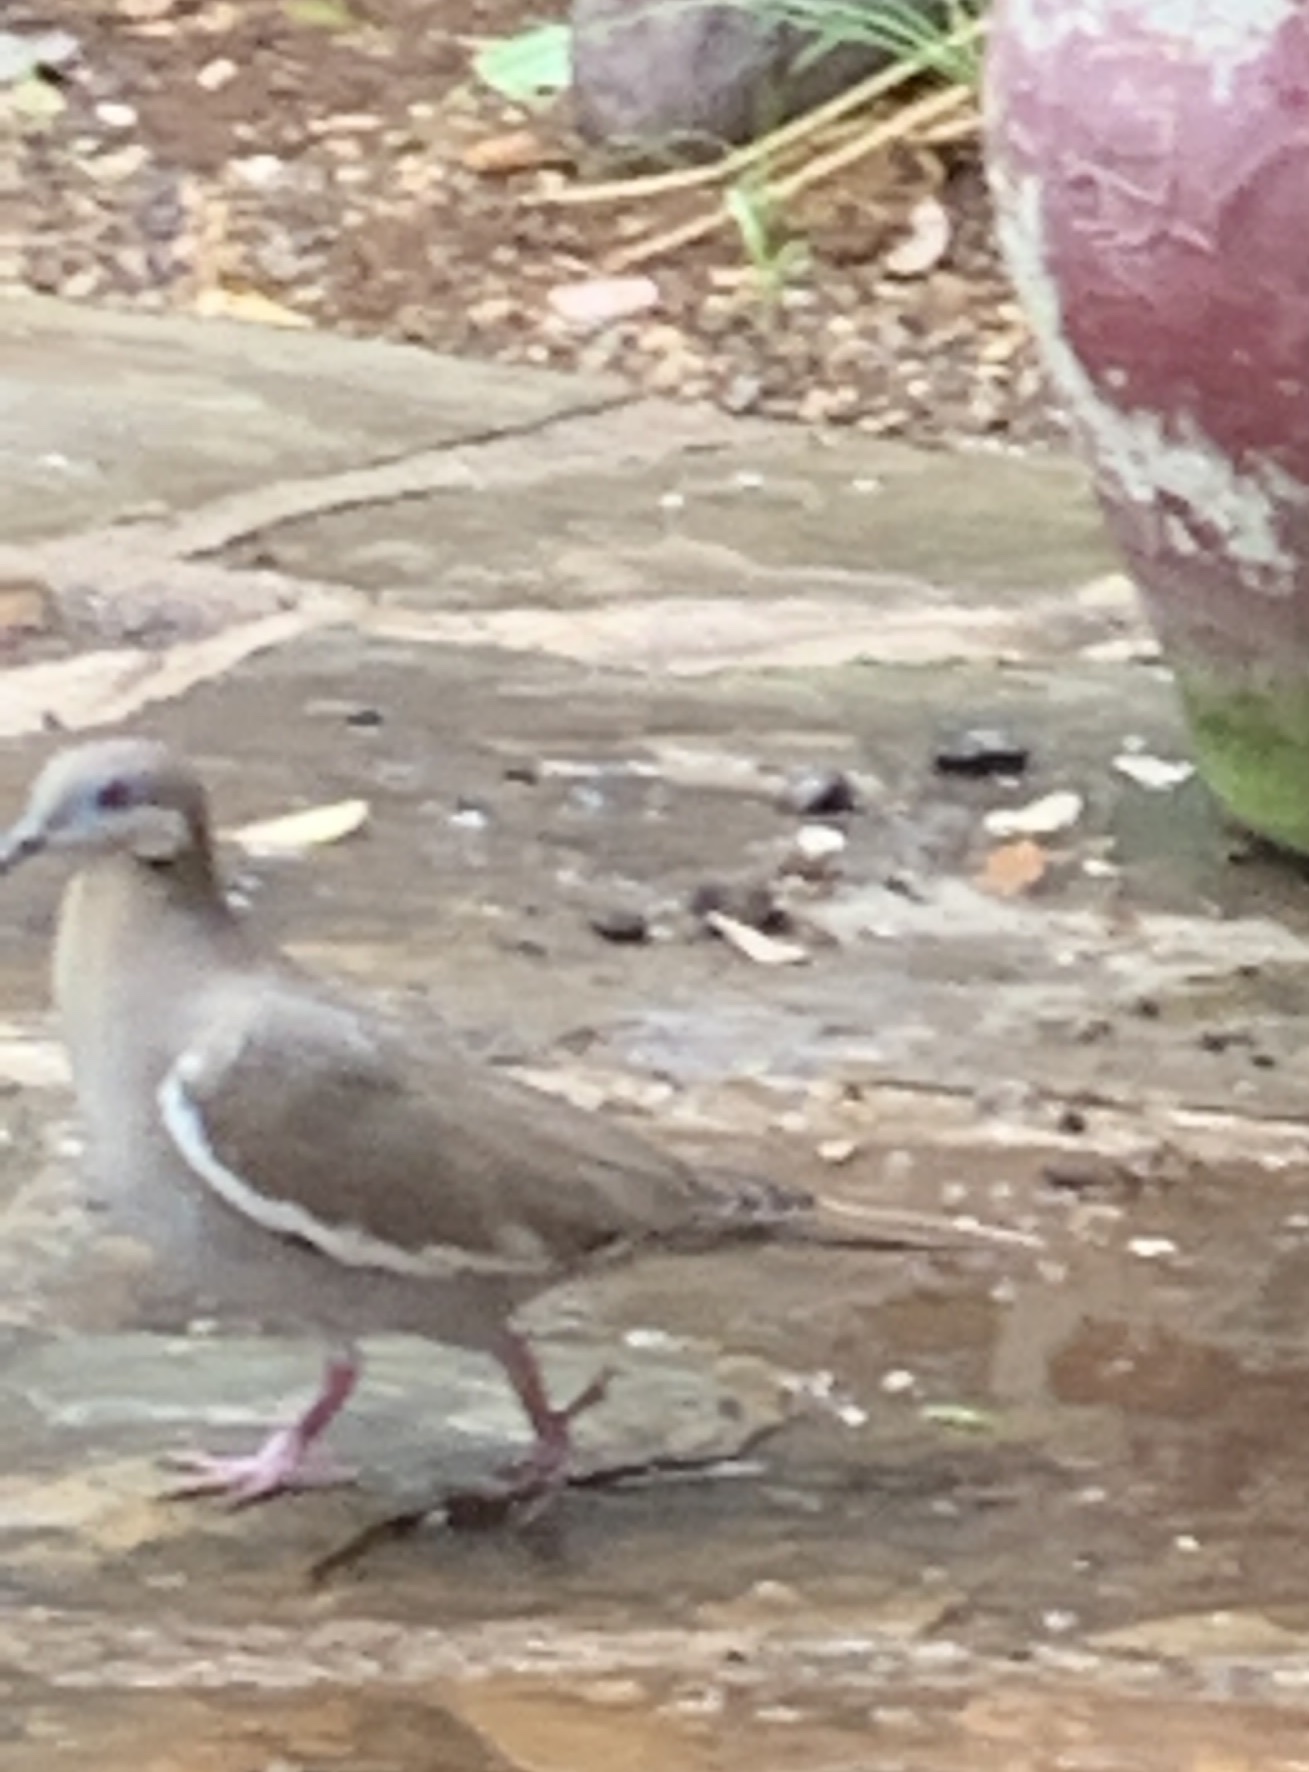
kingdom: Animalia
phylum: Chordata
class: Aves
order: Columbiformes
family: Columbidae
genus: Zenaida
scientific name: Zenaida asiatica
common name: White-winged dove
